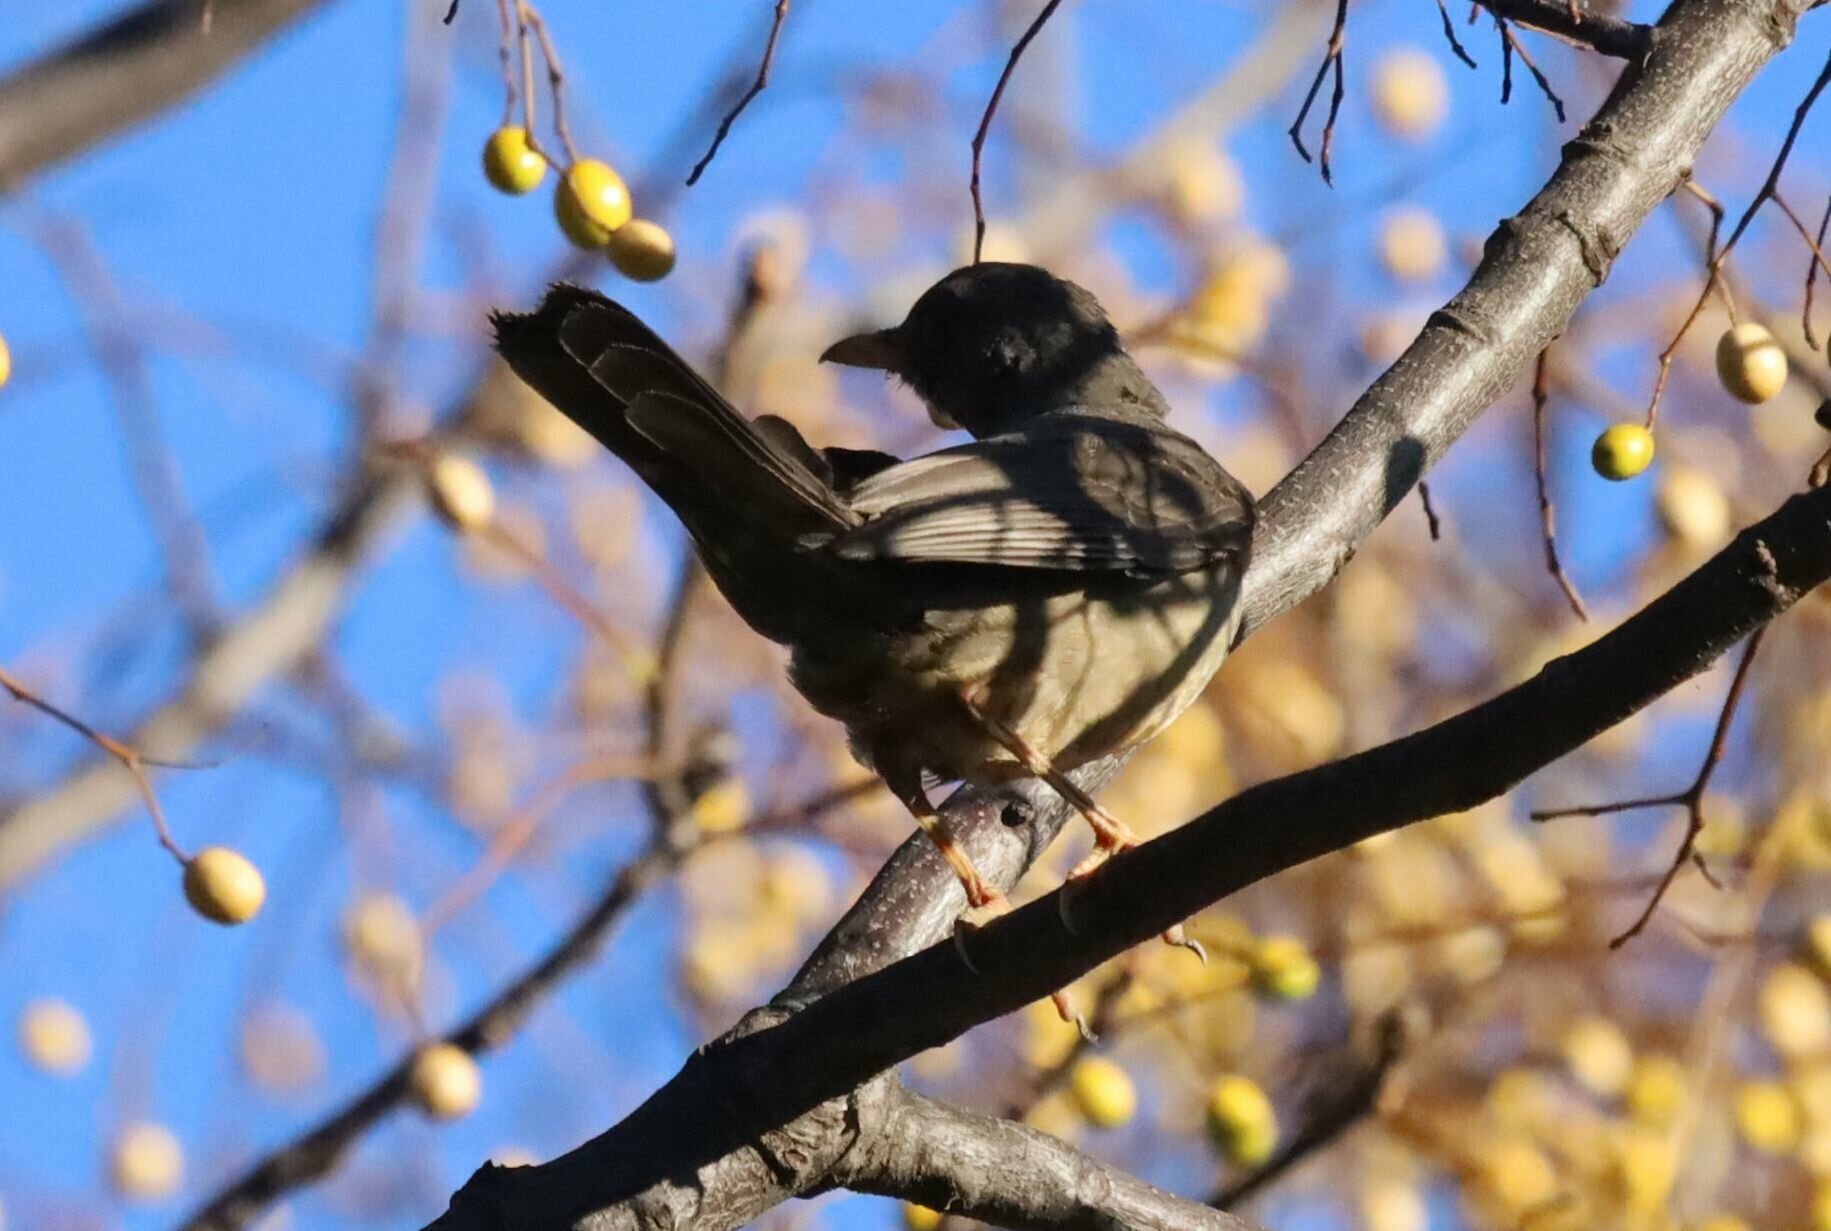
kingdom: Animalia
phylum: Chordata
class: Aves
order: Passeriformes
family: Turdidae
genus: Turdus
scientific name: Turdus smithi
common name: Karoo thrush
